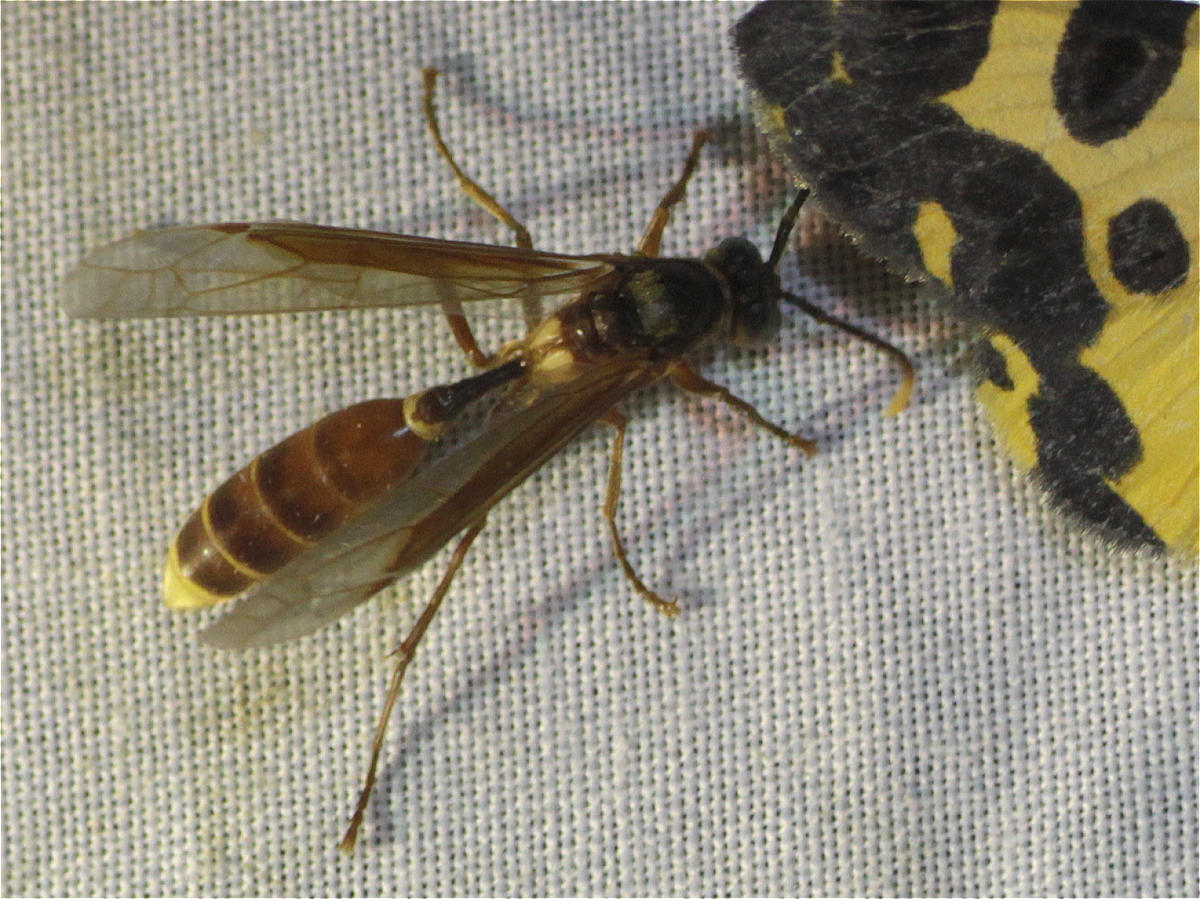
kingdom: Animalia
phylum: Arthropoda
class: Insecta
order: Hymenoptera
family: Vespidae
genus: Apoica
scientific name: Apoica pallida
